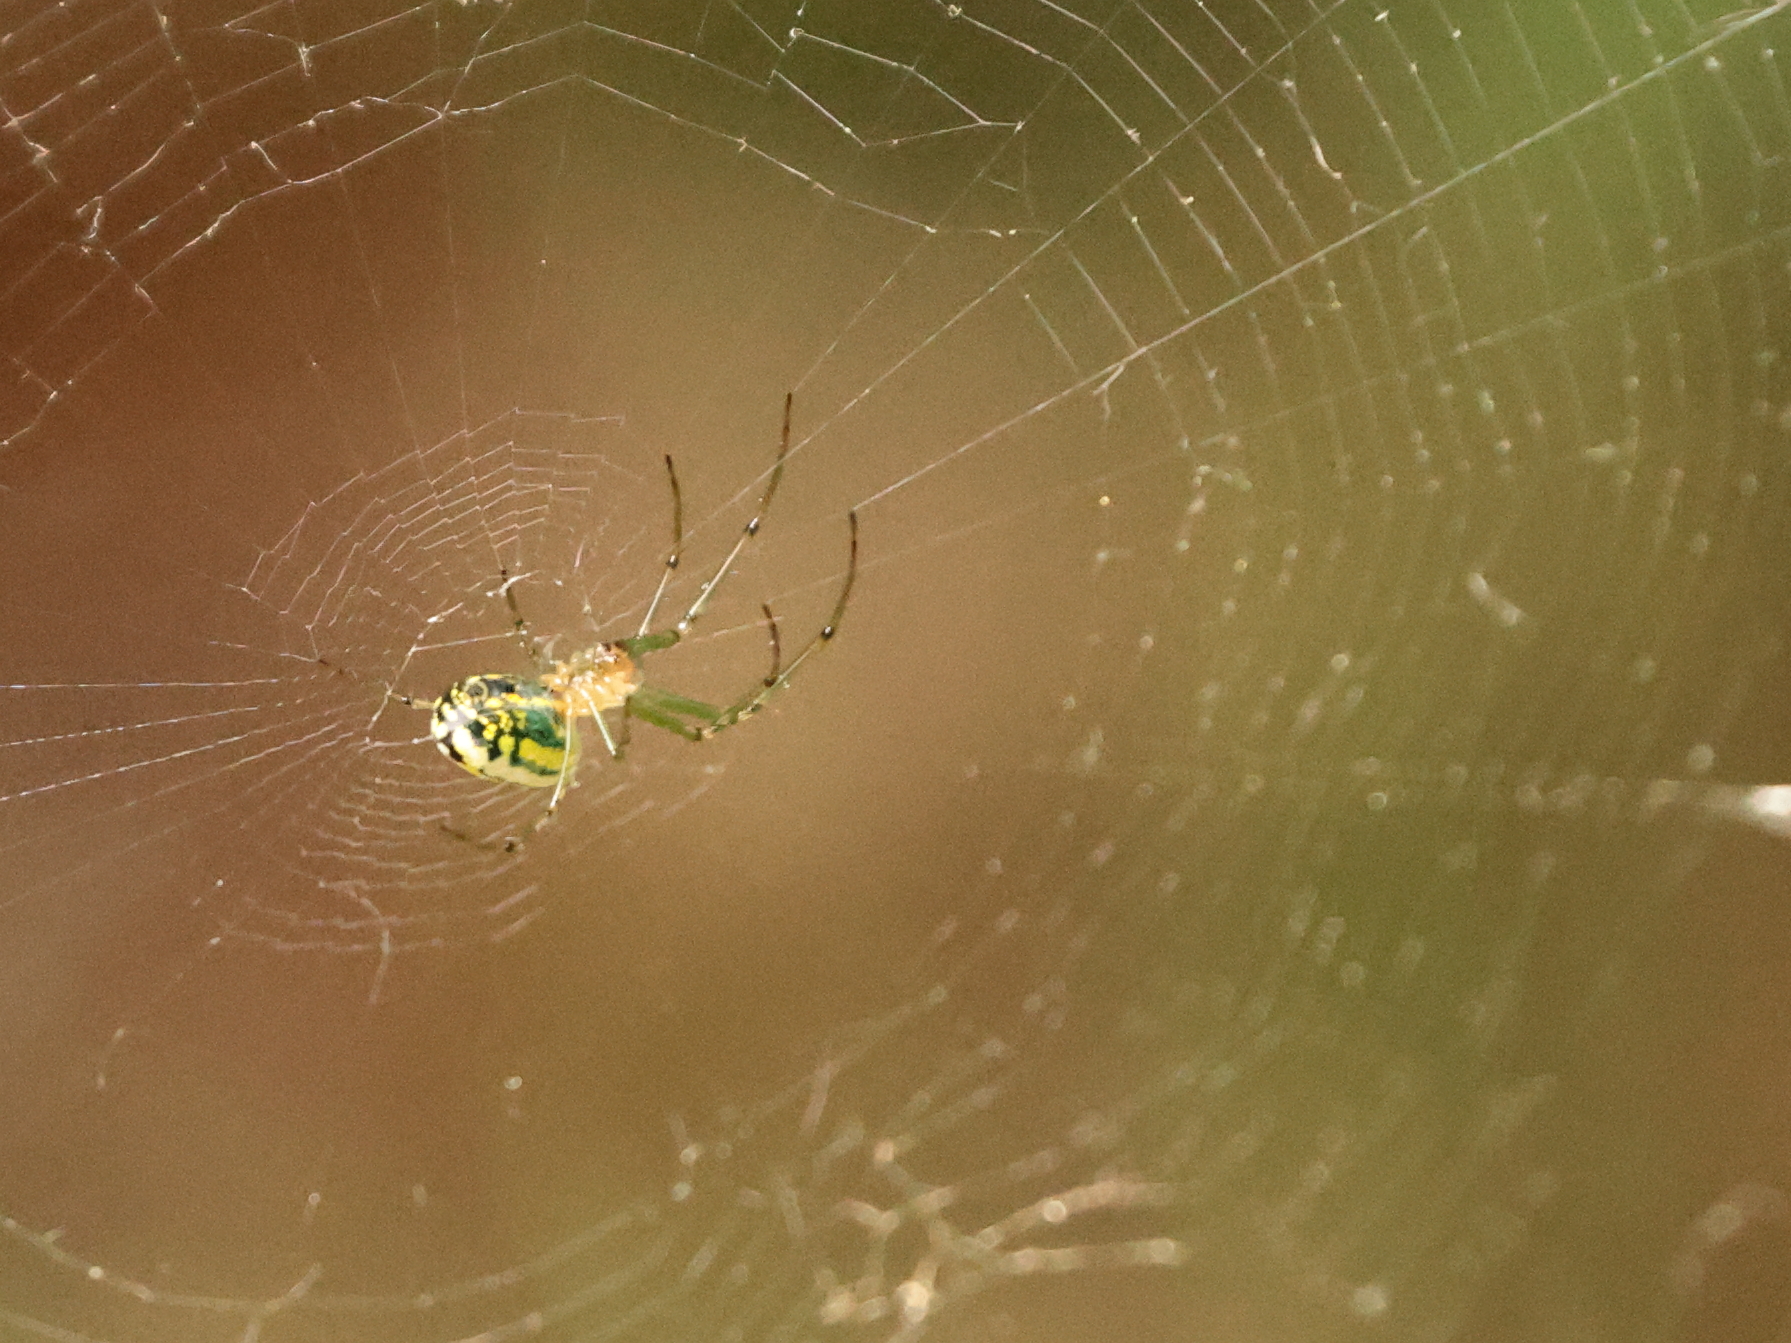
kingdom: Animalia
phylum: Arthropoda
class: Arachnida
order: Araneae
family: Tetragnathidae
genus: Leucauge
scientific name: Leucauge venusta
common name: Longjawed orb weavers
